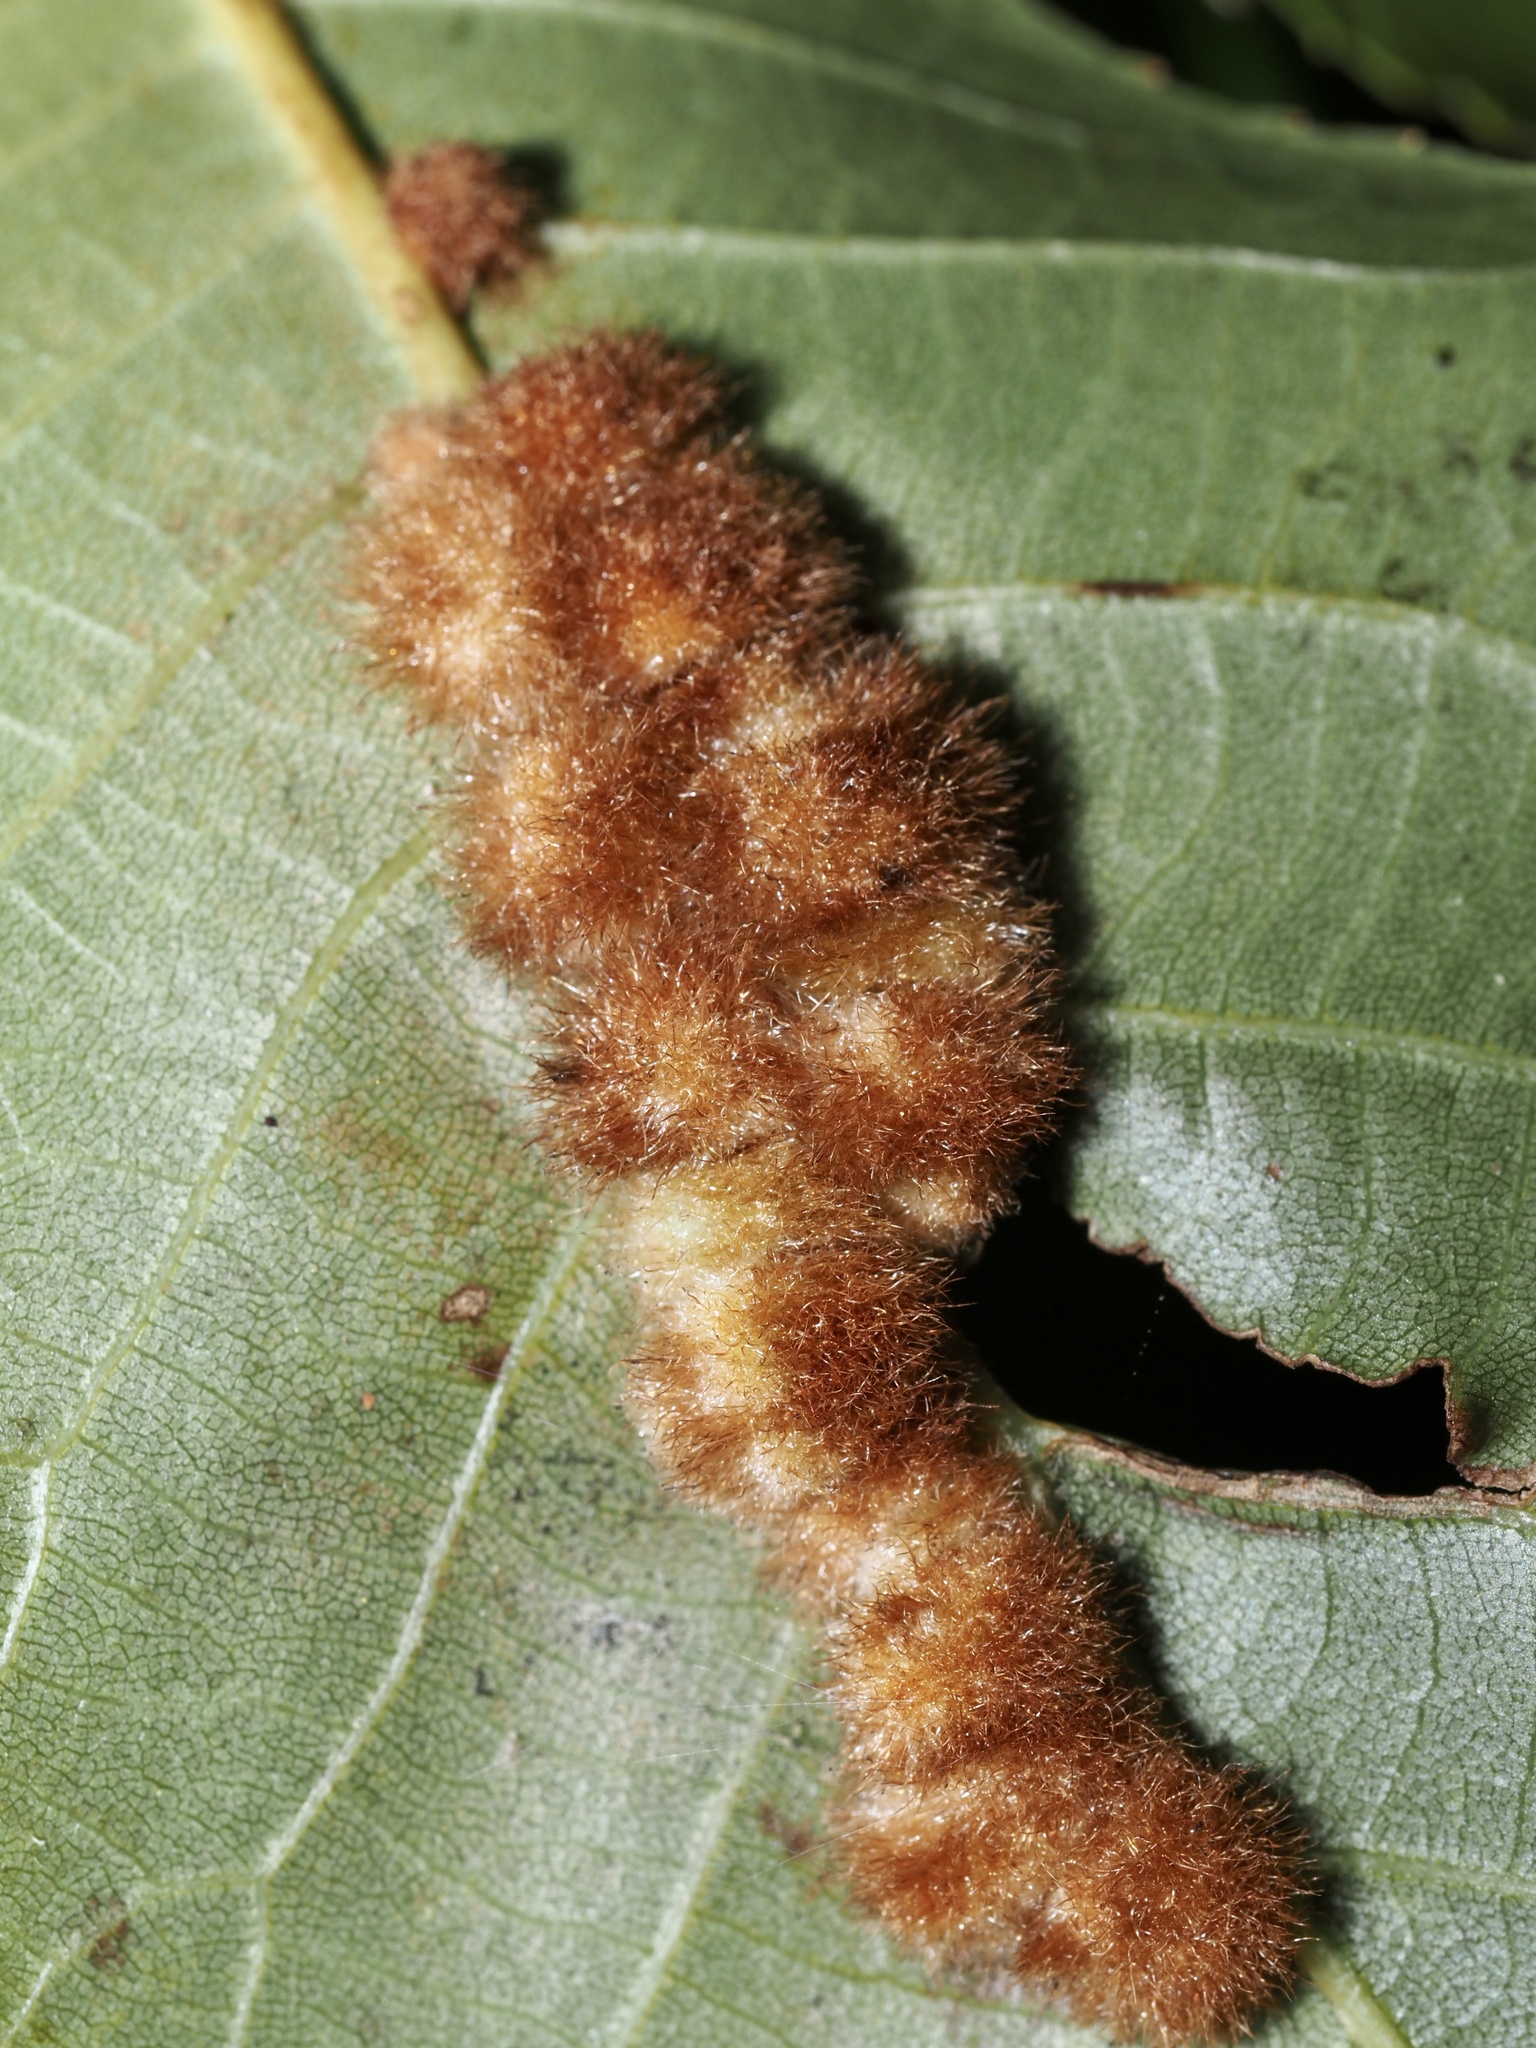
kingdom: Animalia
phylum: Arthropoda
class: Insecta
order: Diptera
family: Cecidomyiidae
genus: Caryomyia
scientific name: Caryomyia aggregata
